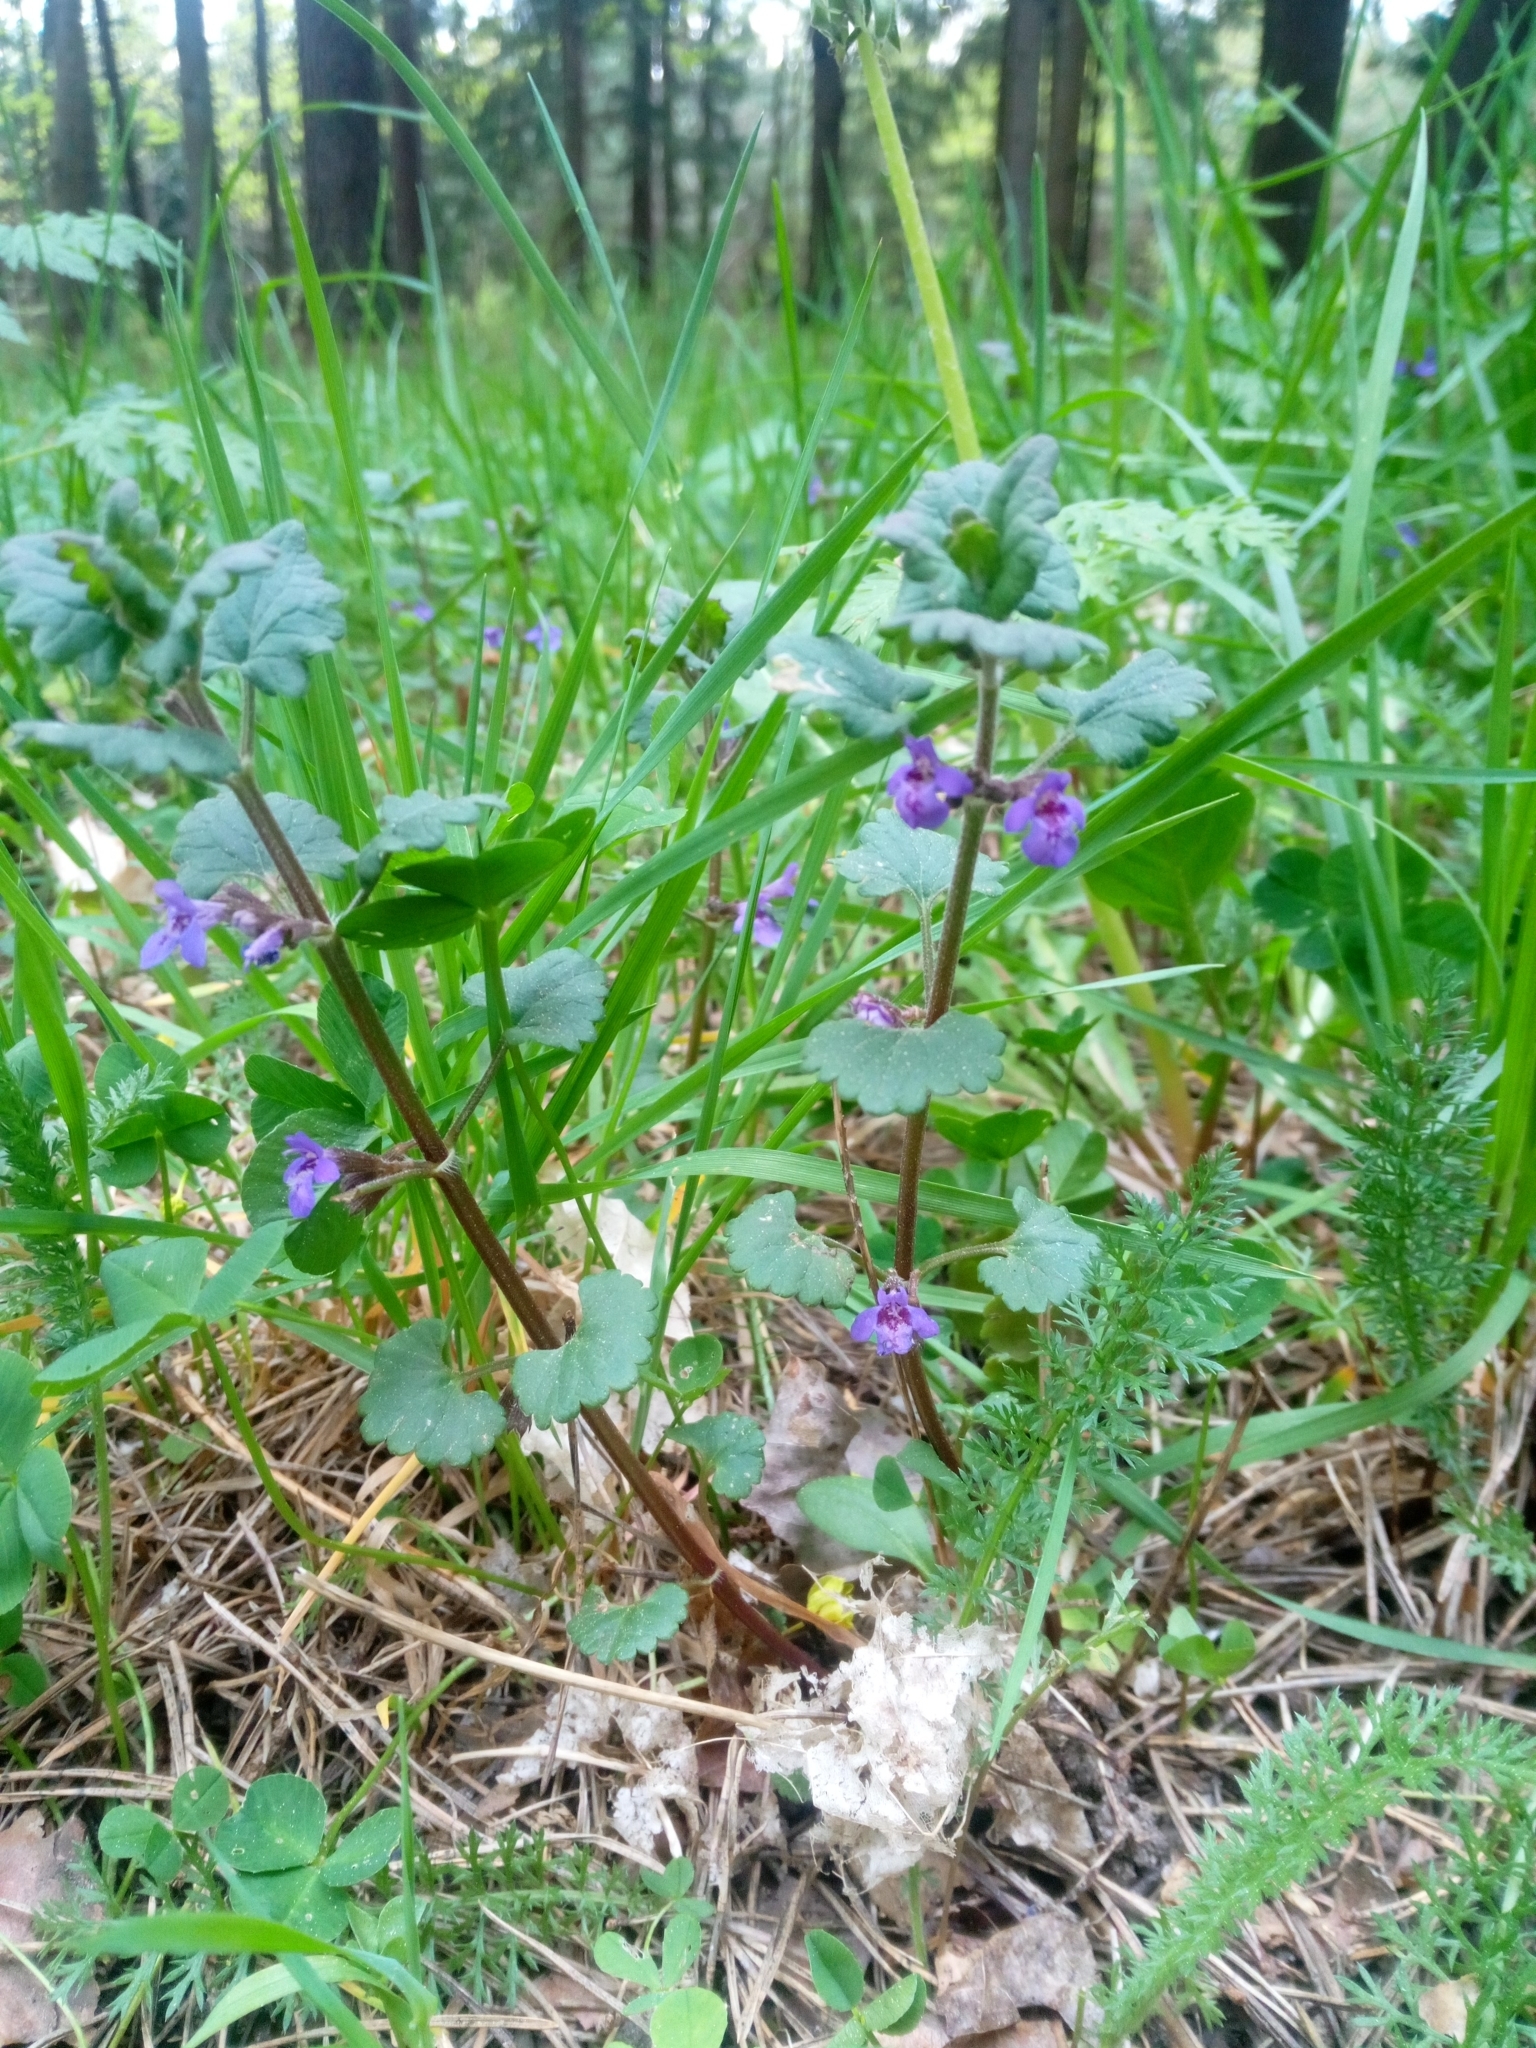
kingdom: Plantae
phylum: Tracheophyta
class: Magnoliopsida
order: Lamiales
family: Lamiaceae
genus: Glechoma
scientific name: Glechoma hederacea
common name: Ground ivy
